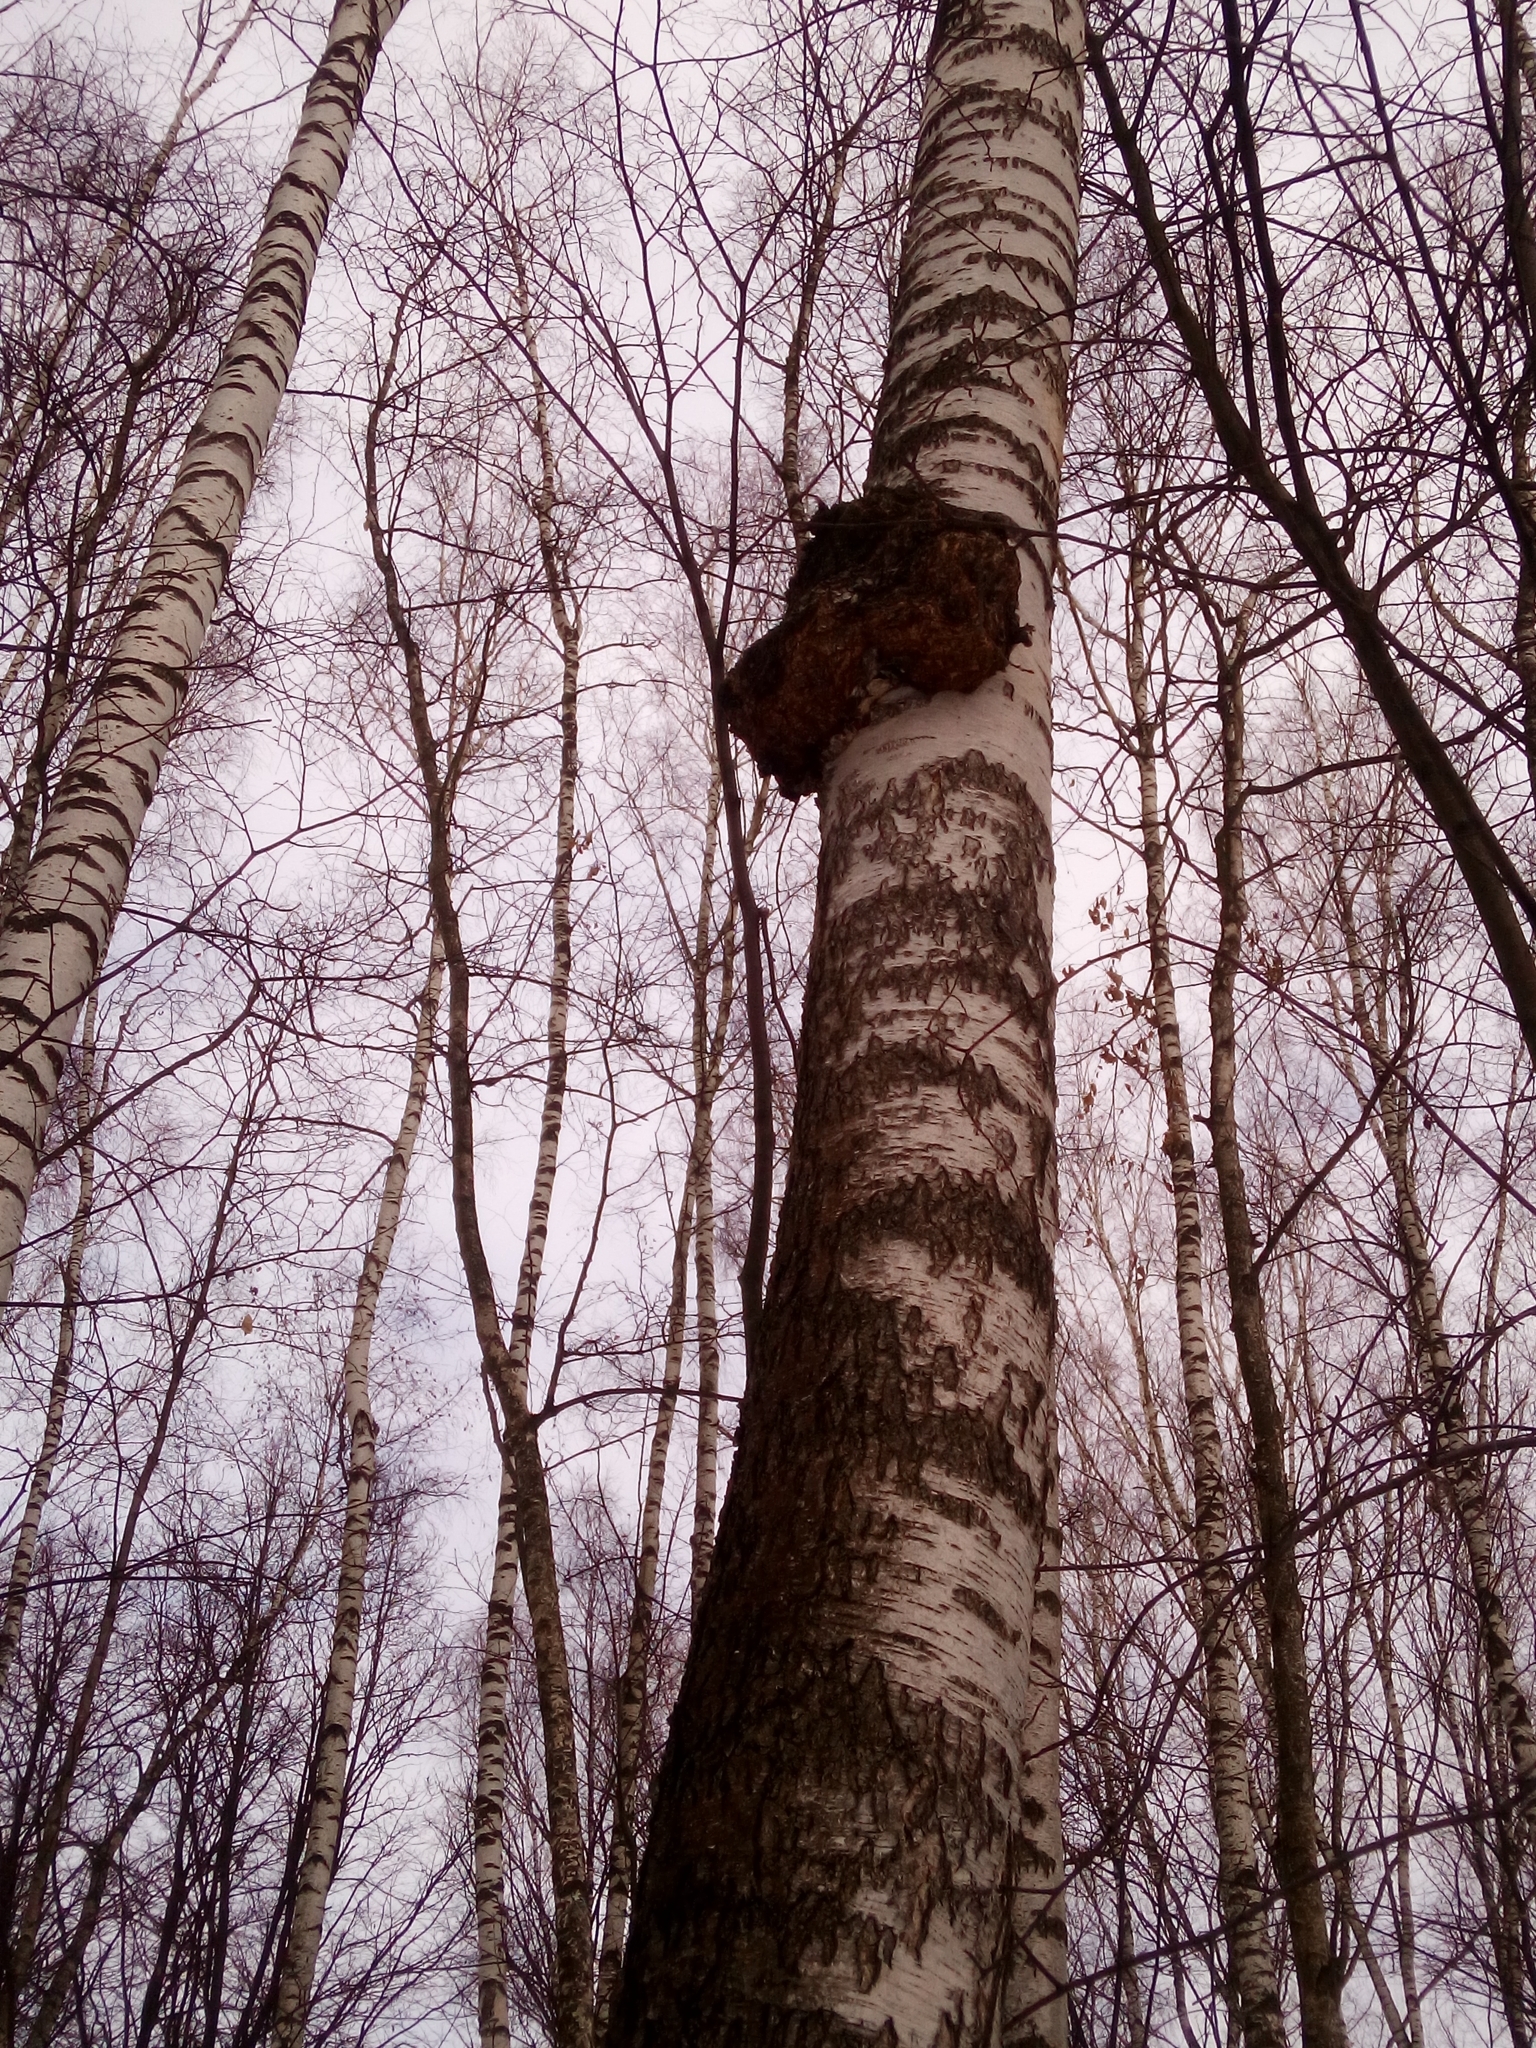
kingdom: Bacteria
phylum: Proteobacteria
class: Alphaproteobacteria
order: Rhizobiales
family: Rhizobiaceae
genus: Rhizobium
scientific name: Rhizobium Agrobacterium radiobacter
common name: Bacterial crown gall
